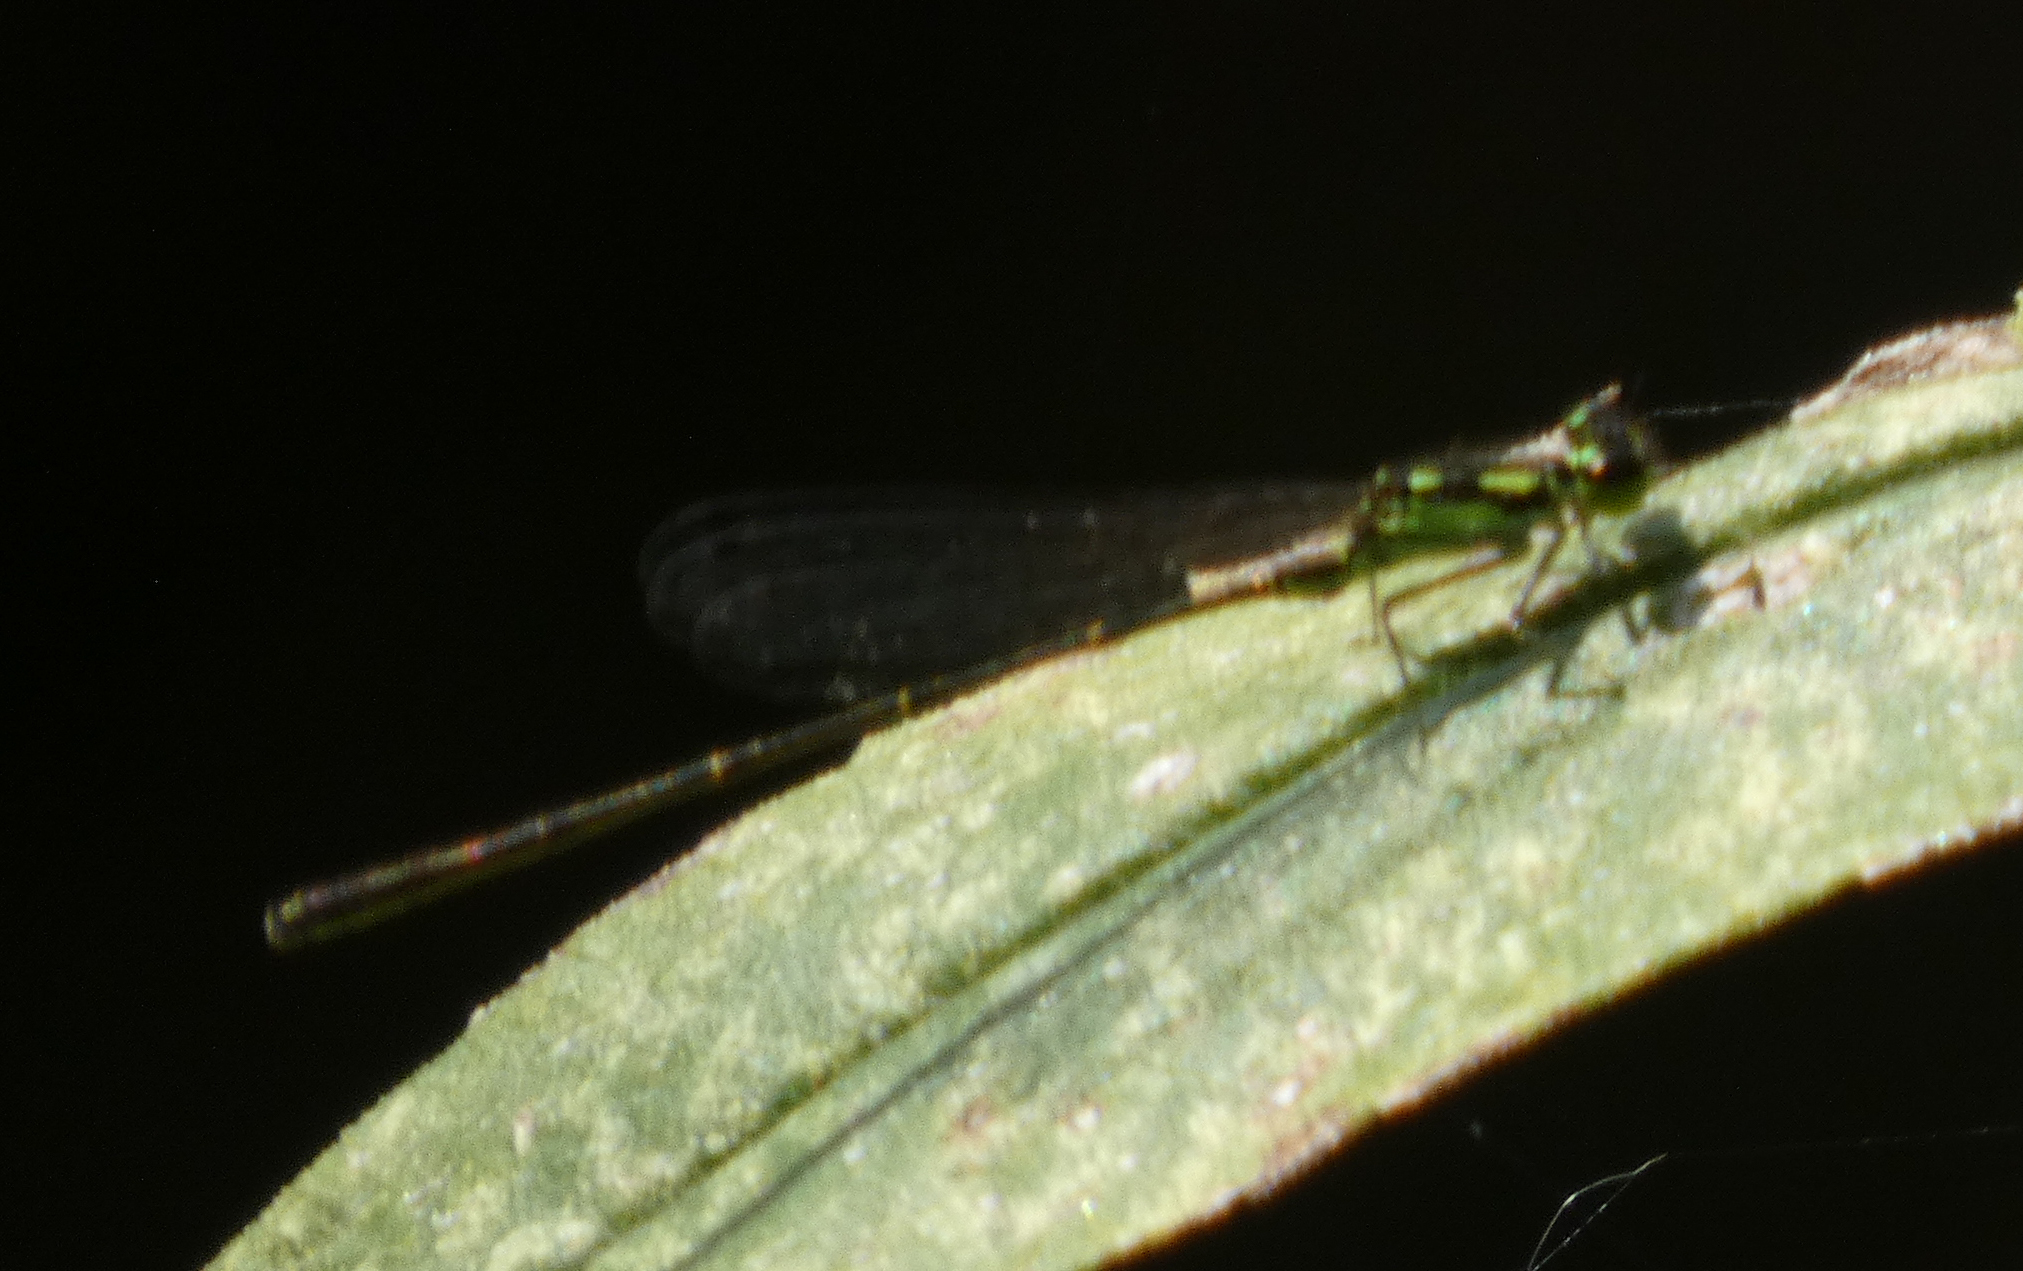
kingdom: Animalia
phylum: Arthropoda
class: Insecta
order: Odonata
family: Coenagrionidae
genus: Ischnura
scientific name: Ischnura posita
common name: Fragile forktail
